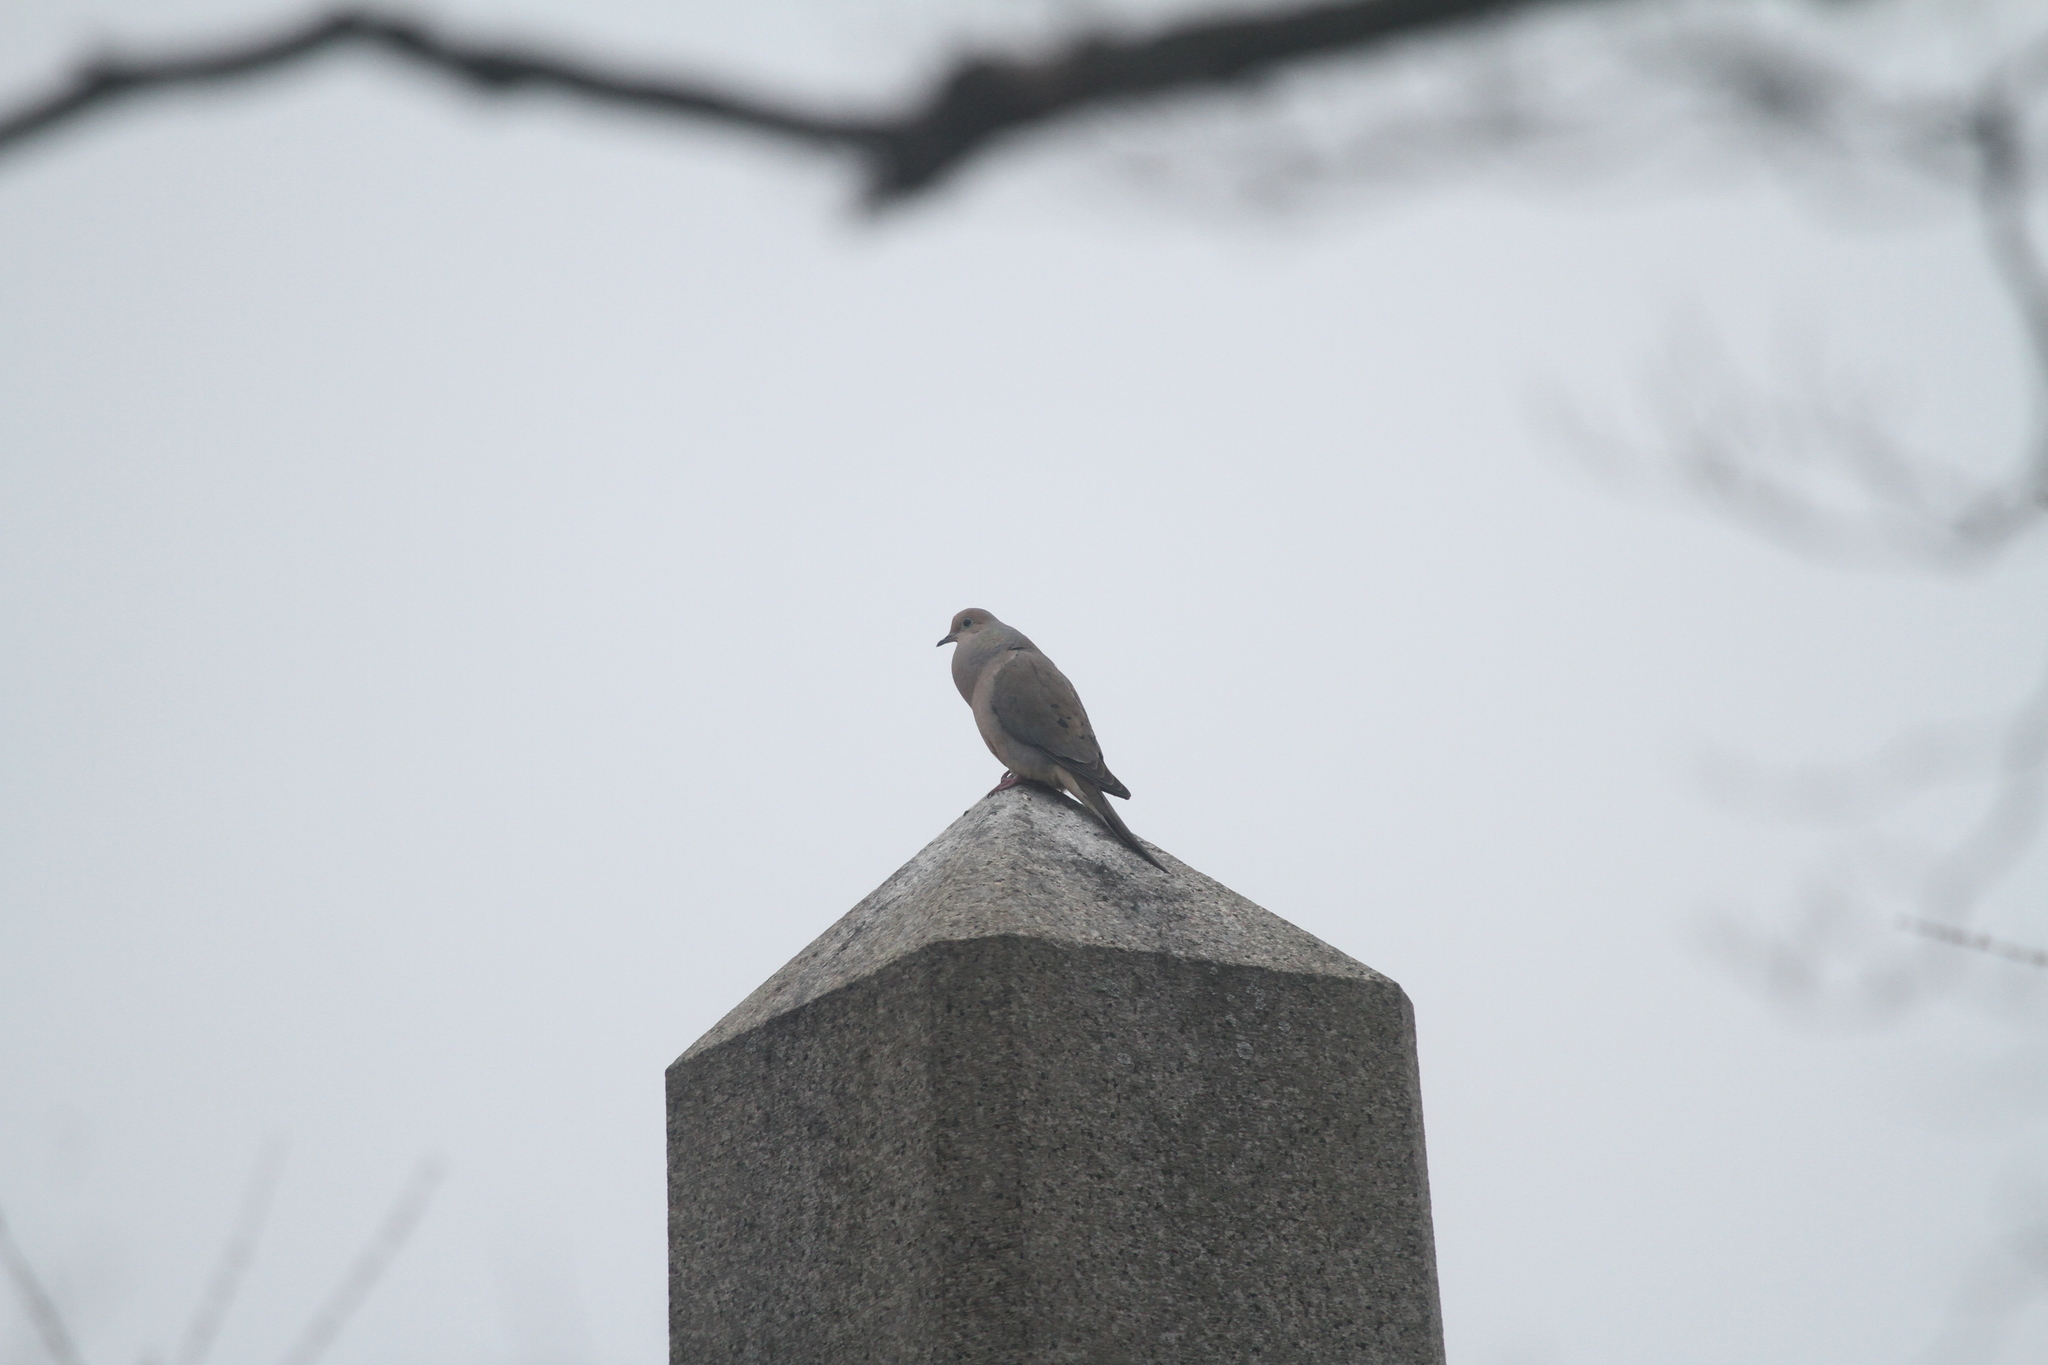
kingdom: Animalia
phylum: Chordata
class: Aves
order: Columbiformes
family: Columbidae
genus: Zenaida
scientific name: Zenaida macroura
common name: Mourning dove
